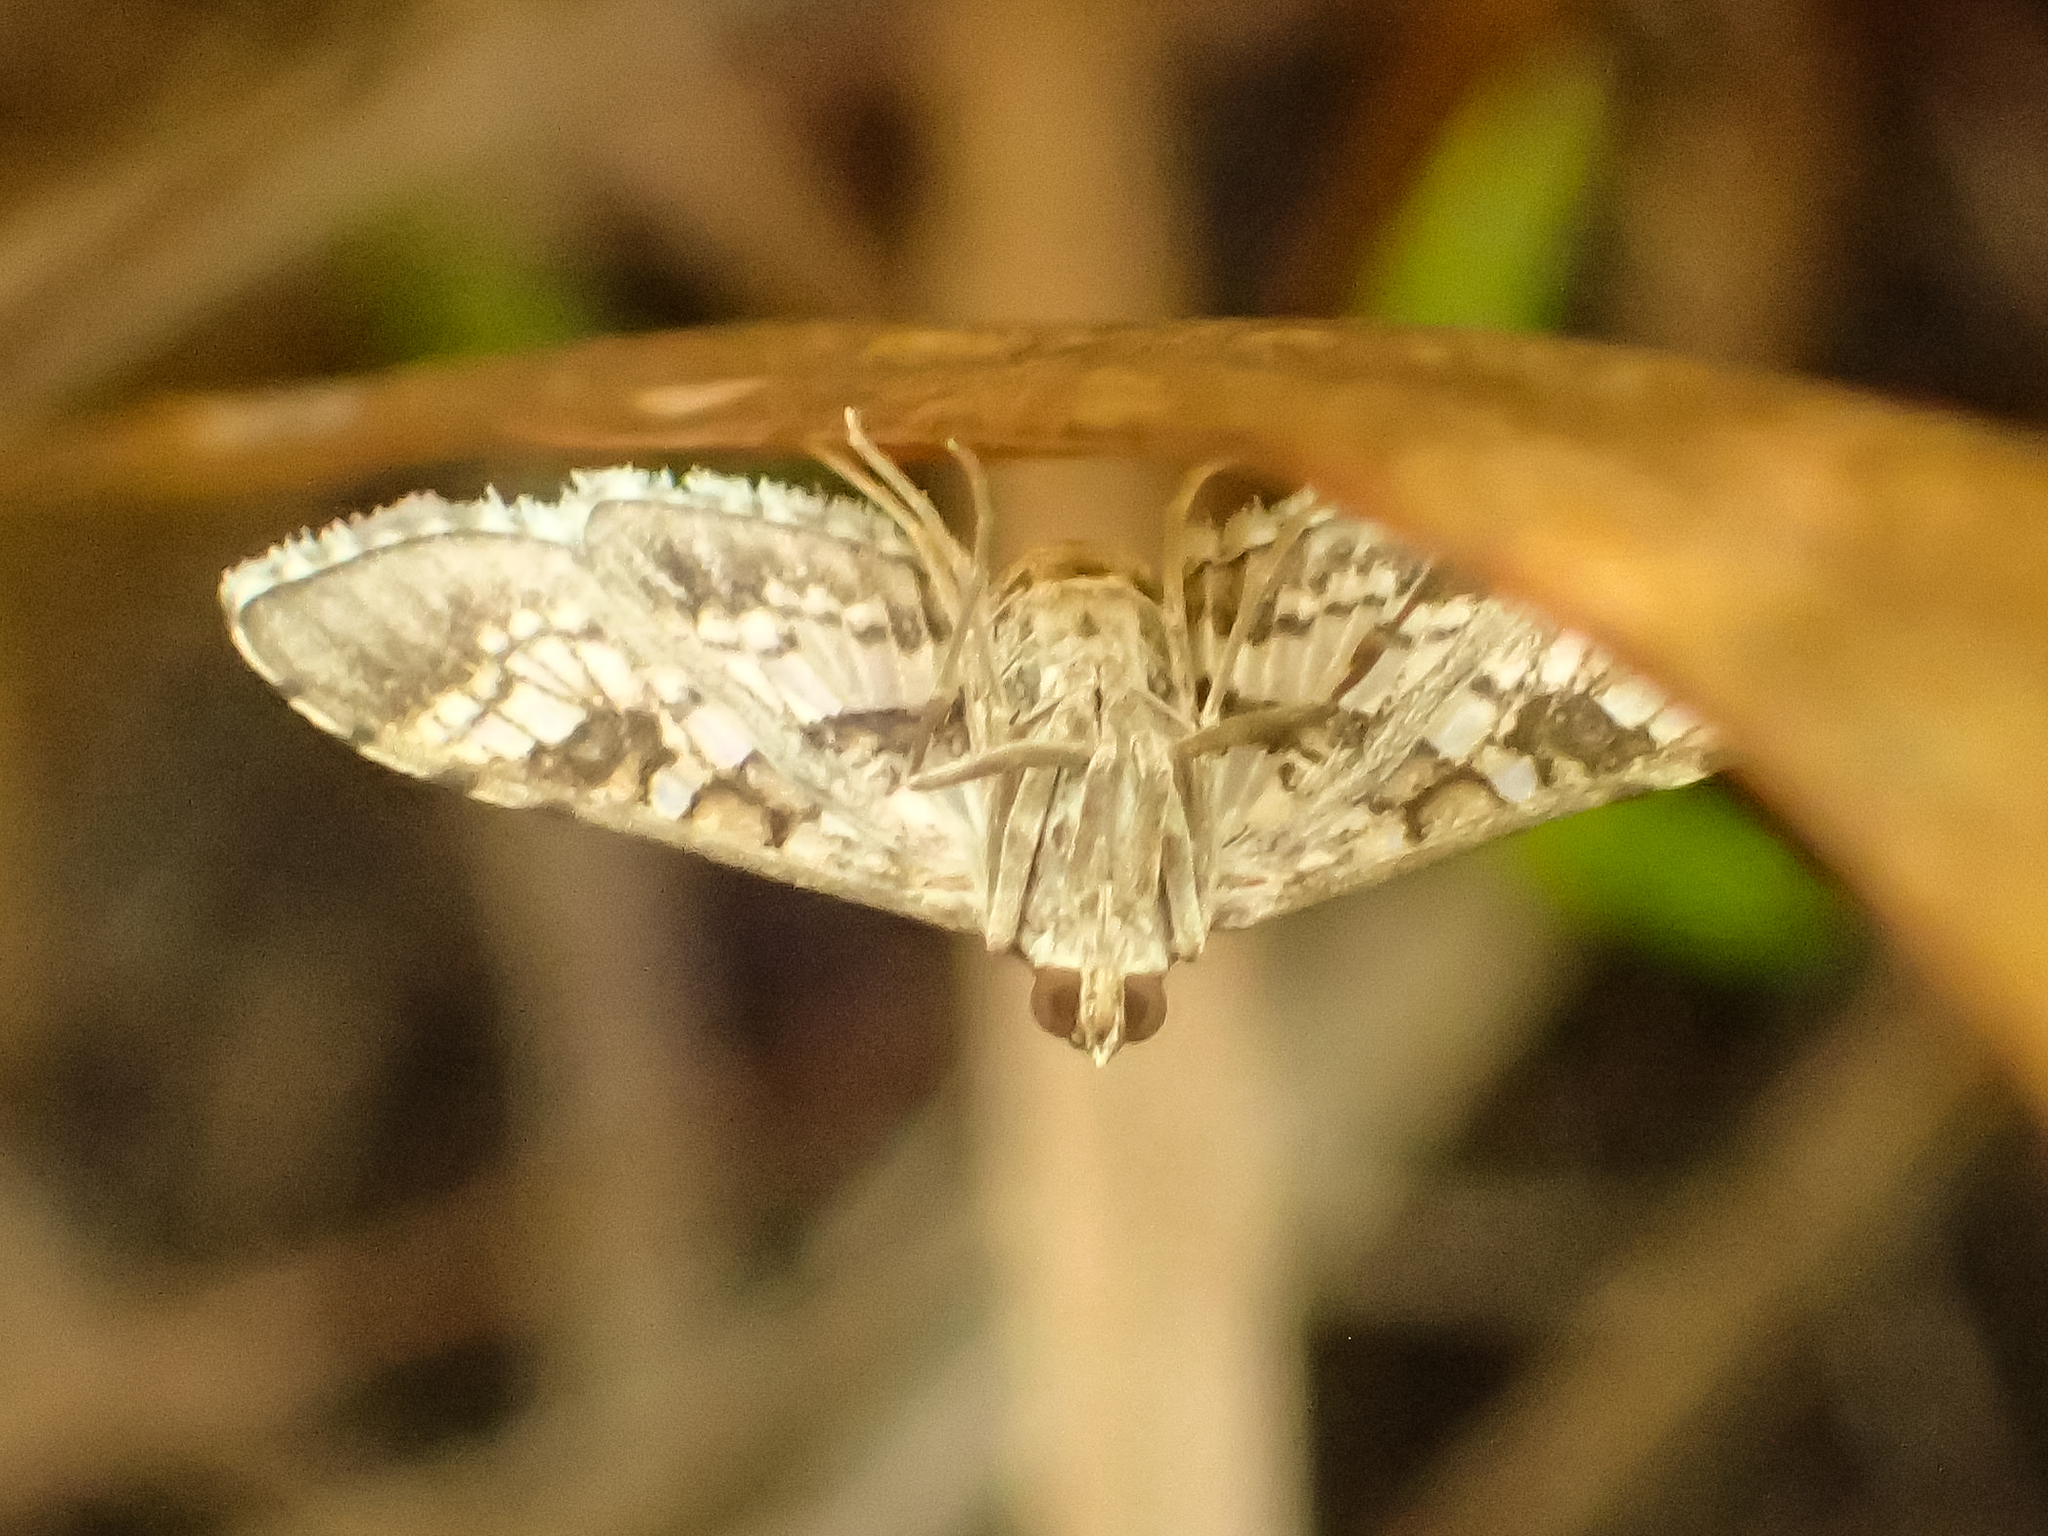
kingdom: Animalia
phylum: Arthropoda
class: Insecta
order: Lepidoptera
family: Crambidae
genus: Sameodes
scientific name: Sameodes cancellalis
